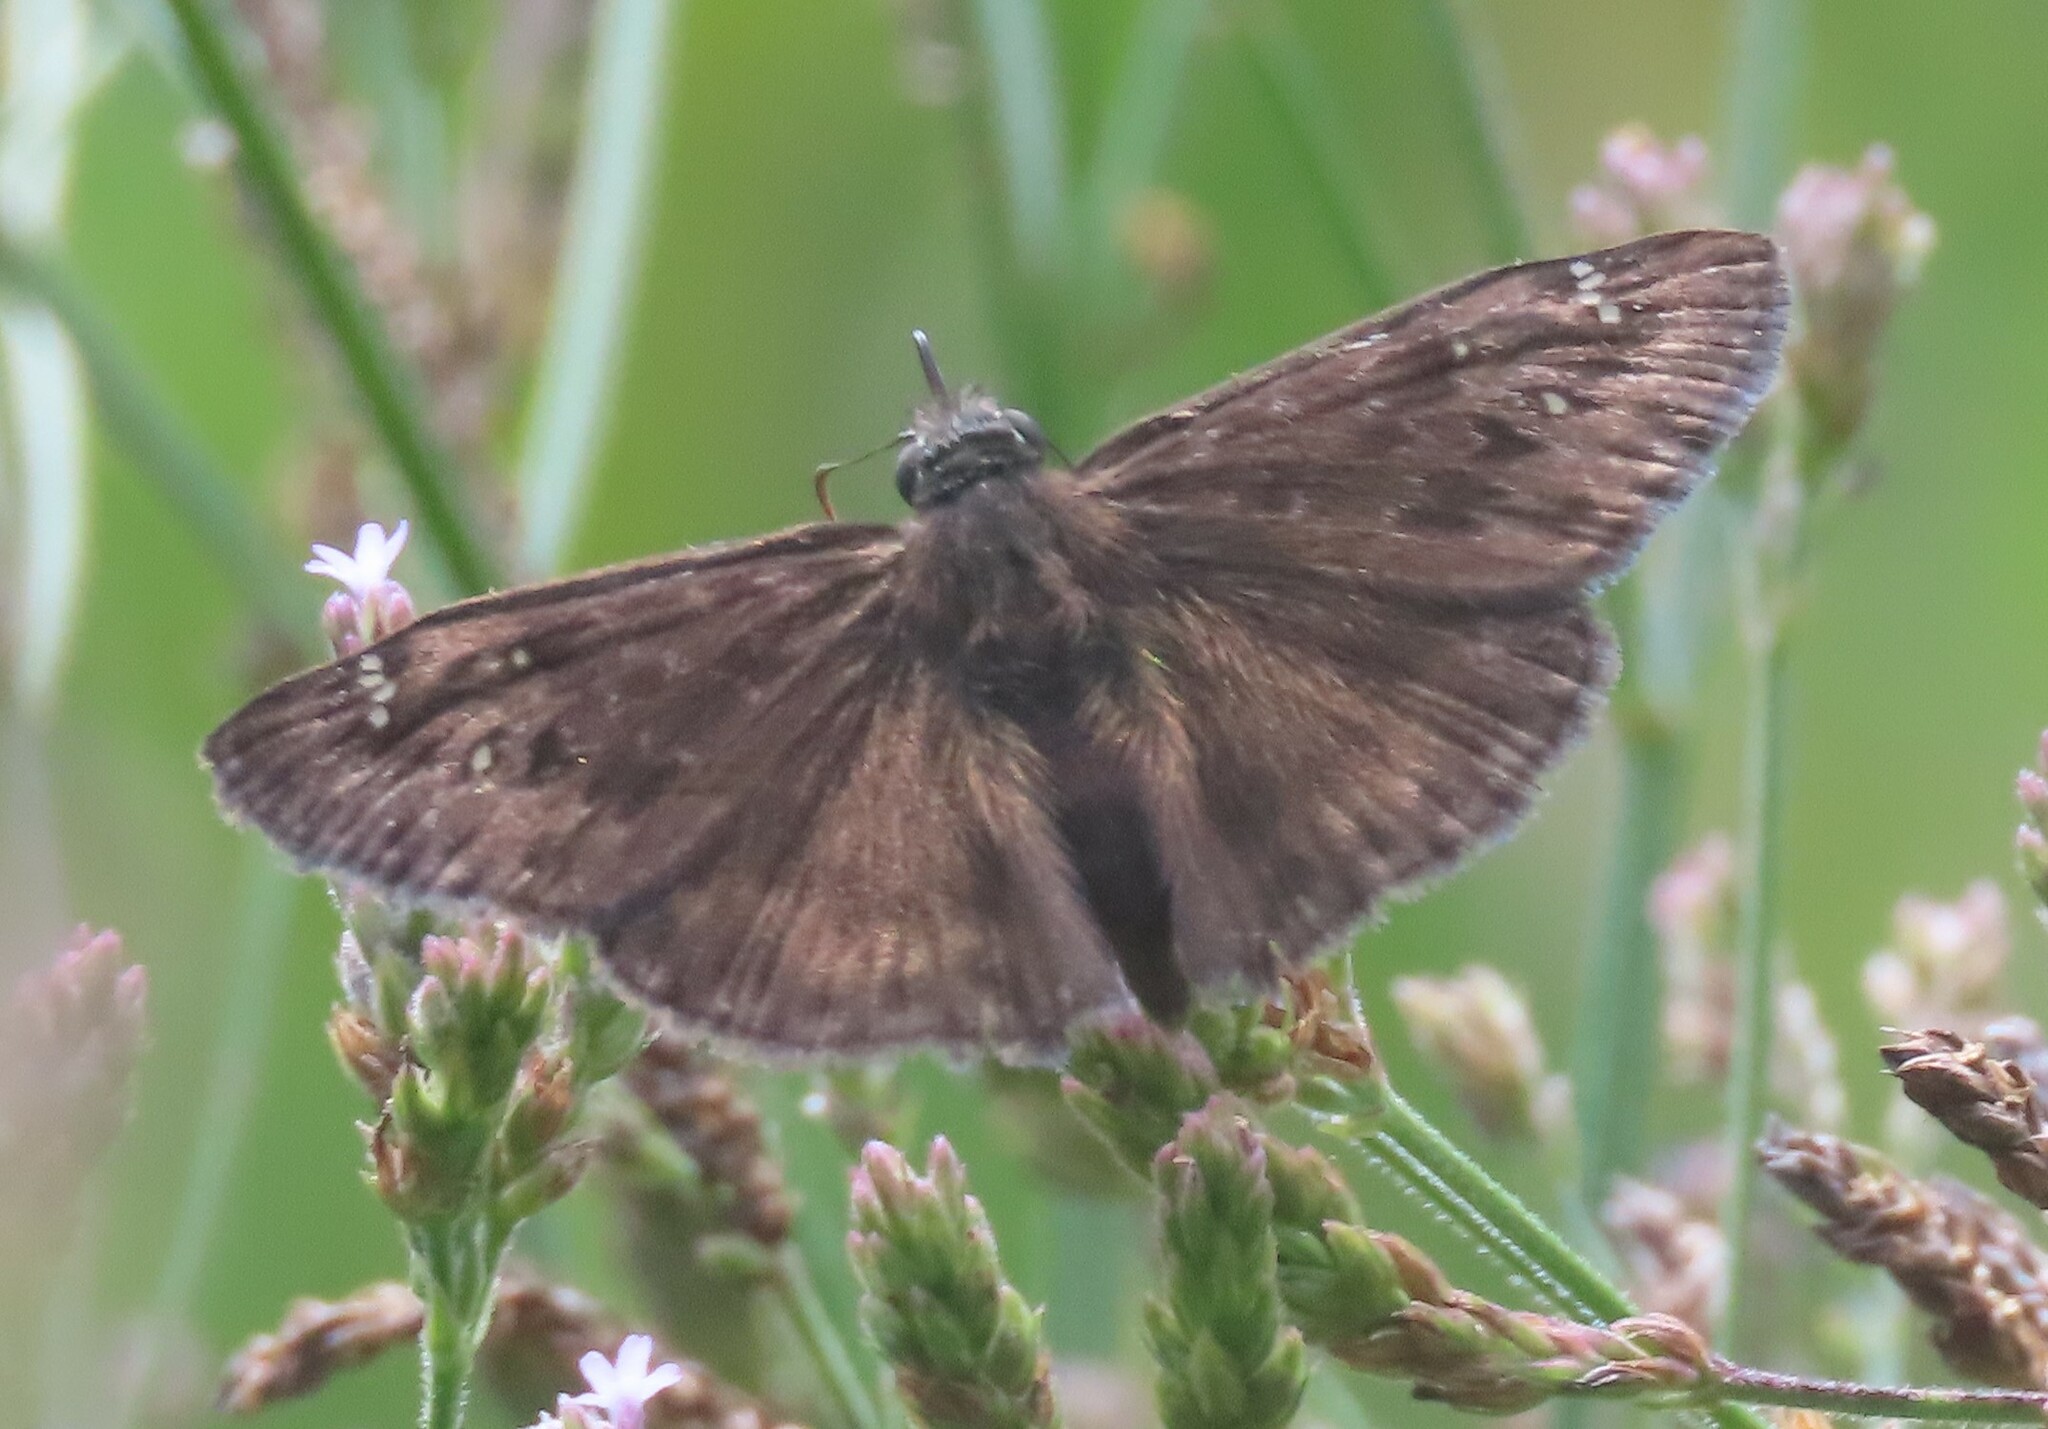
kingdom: Animalia
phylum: Arthropoda
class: Insecta
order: Lepidoptera
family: Hesperiidae
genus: Erynnis
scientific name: Erynnis horatius
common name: Horace's duskywing
